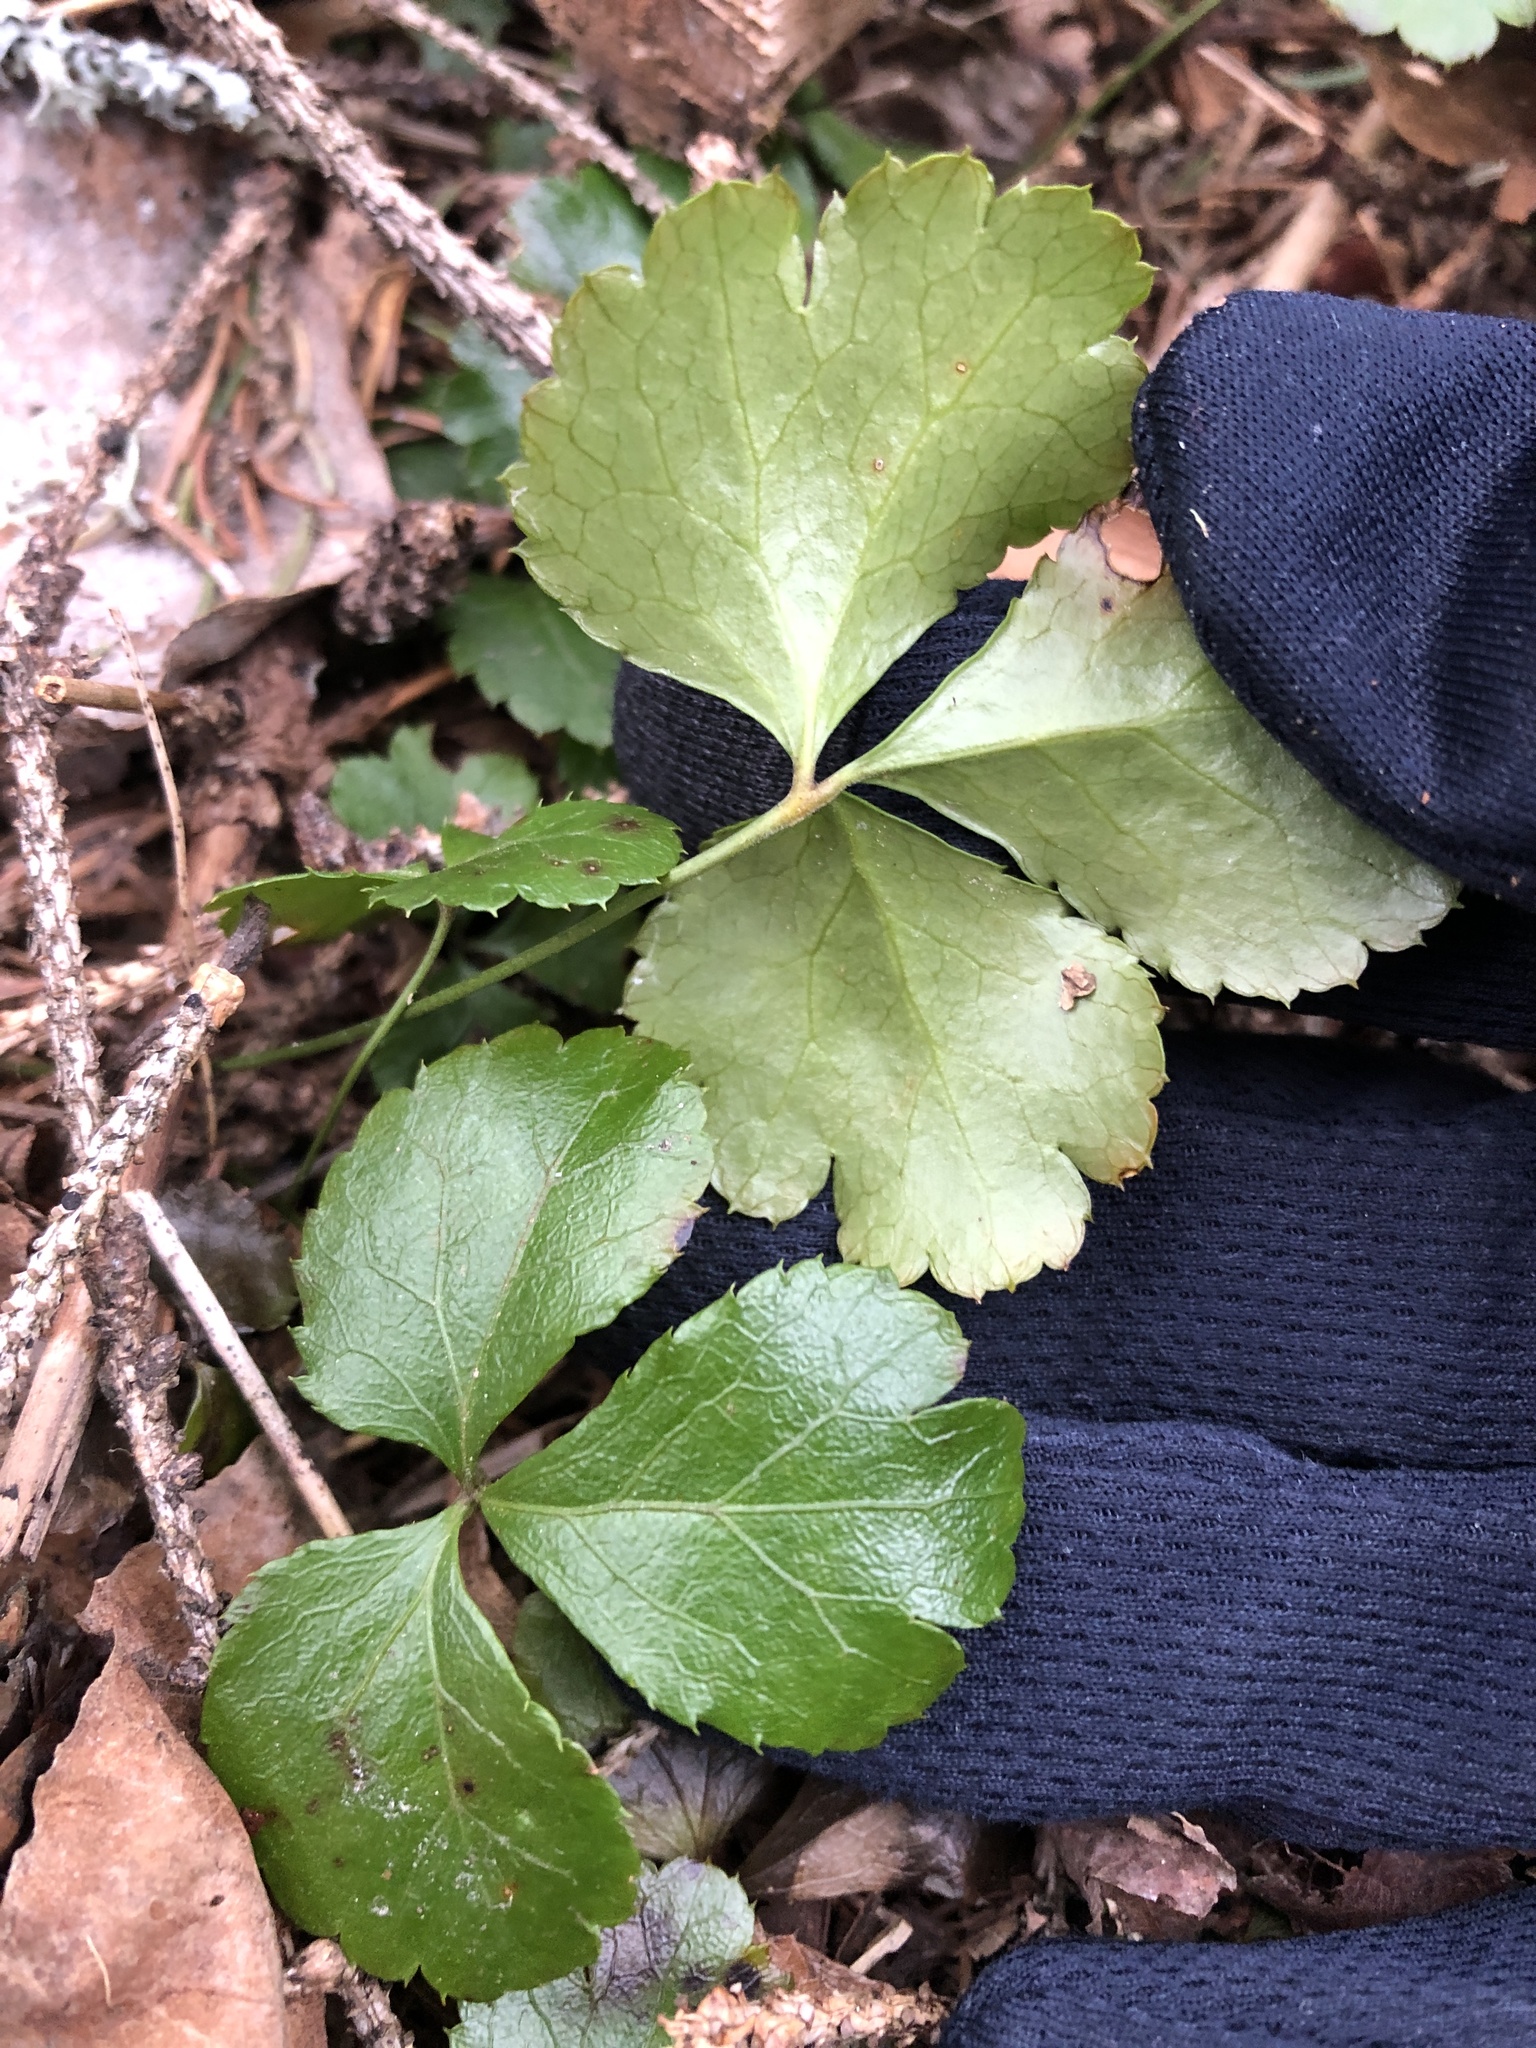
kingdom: Plantae
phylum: Tracheophyta
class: Magnoliopsida
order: Ranunculales
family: Ranunculaceae
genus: Coptis
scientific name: Coptis trifolia
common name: Canker-root
